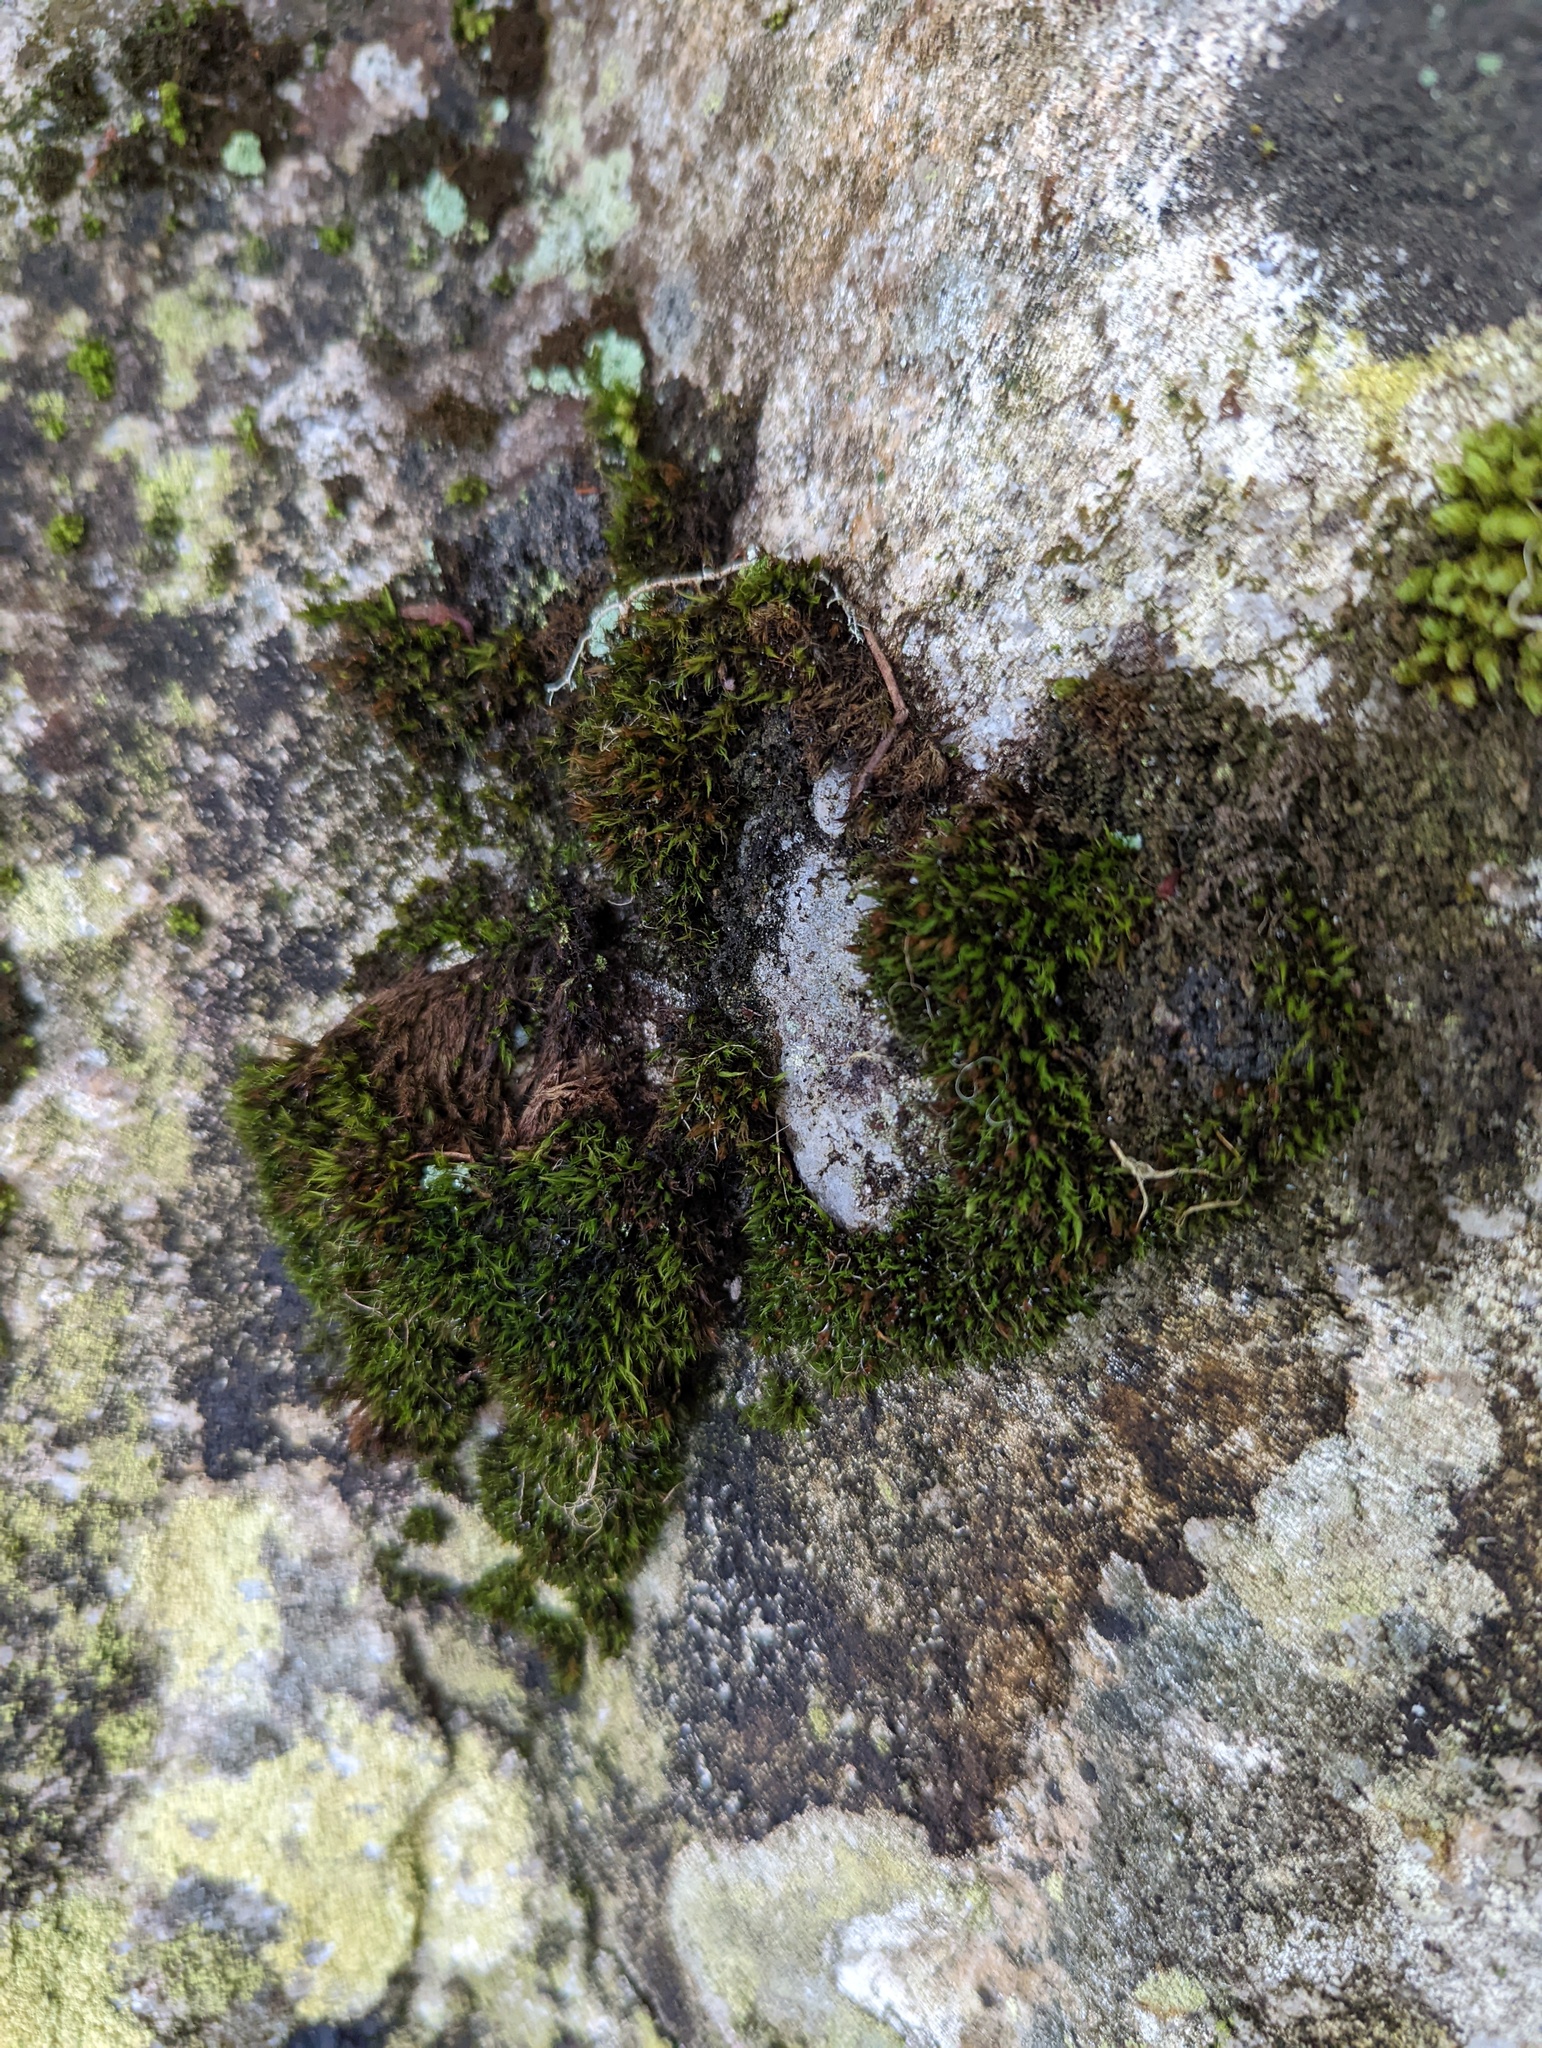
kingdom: Plantae
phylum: Bryophyta
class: Bryopsida
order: Grimmiales
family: Grimmiaceae
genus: Schistidium
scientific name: Schistidium maritimum
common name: Seaside bloom moss
